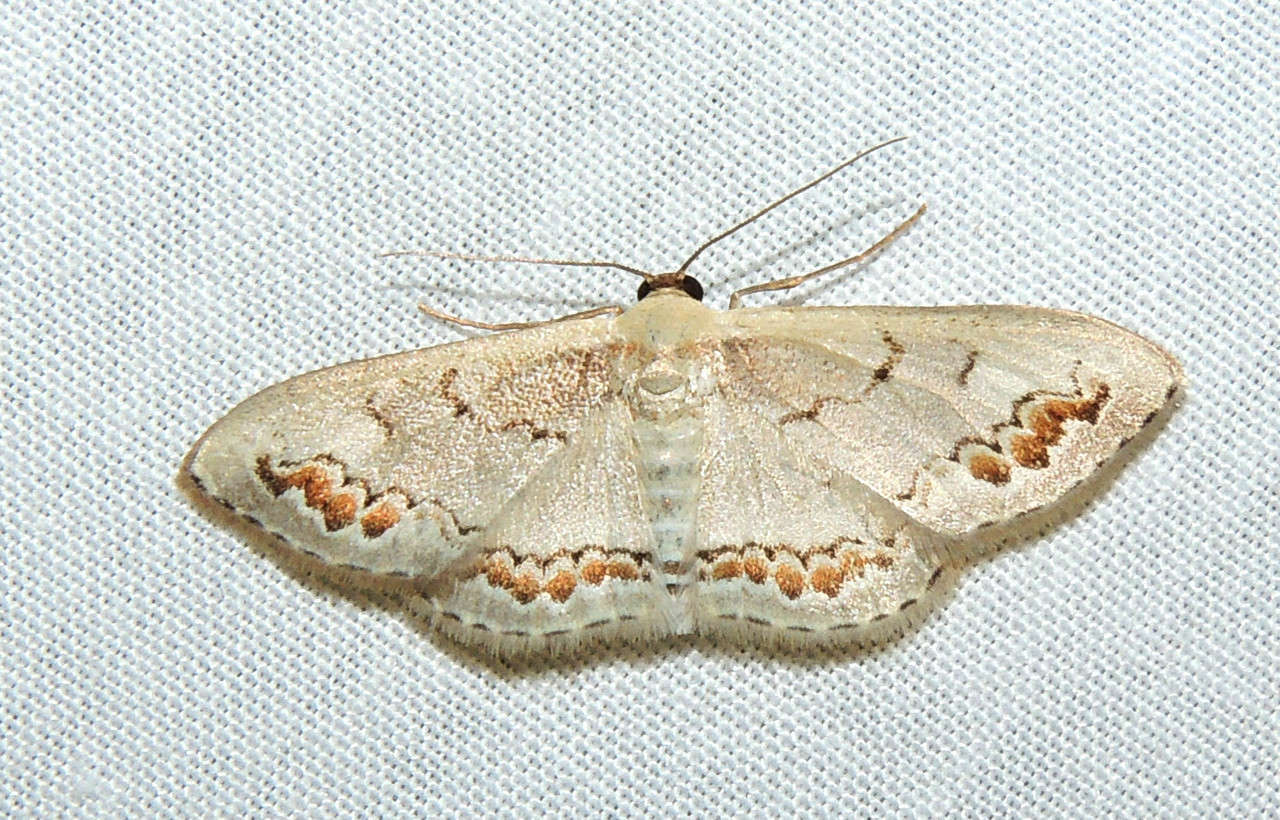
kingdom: Animalia
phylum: Arthropoda
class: Insecta
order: Lepidoptera
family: Geometridae
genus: Dithalama
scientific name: Dithalama cosmospila
